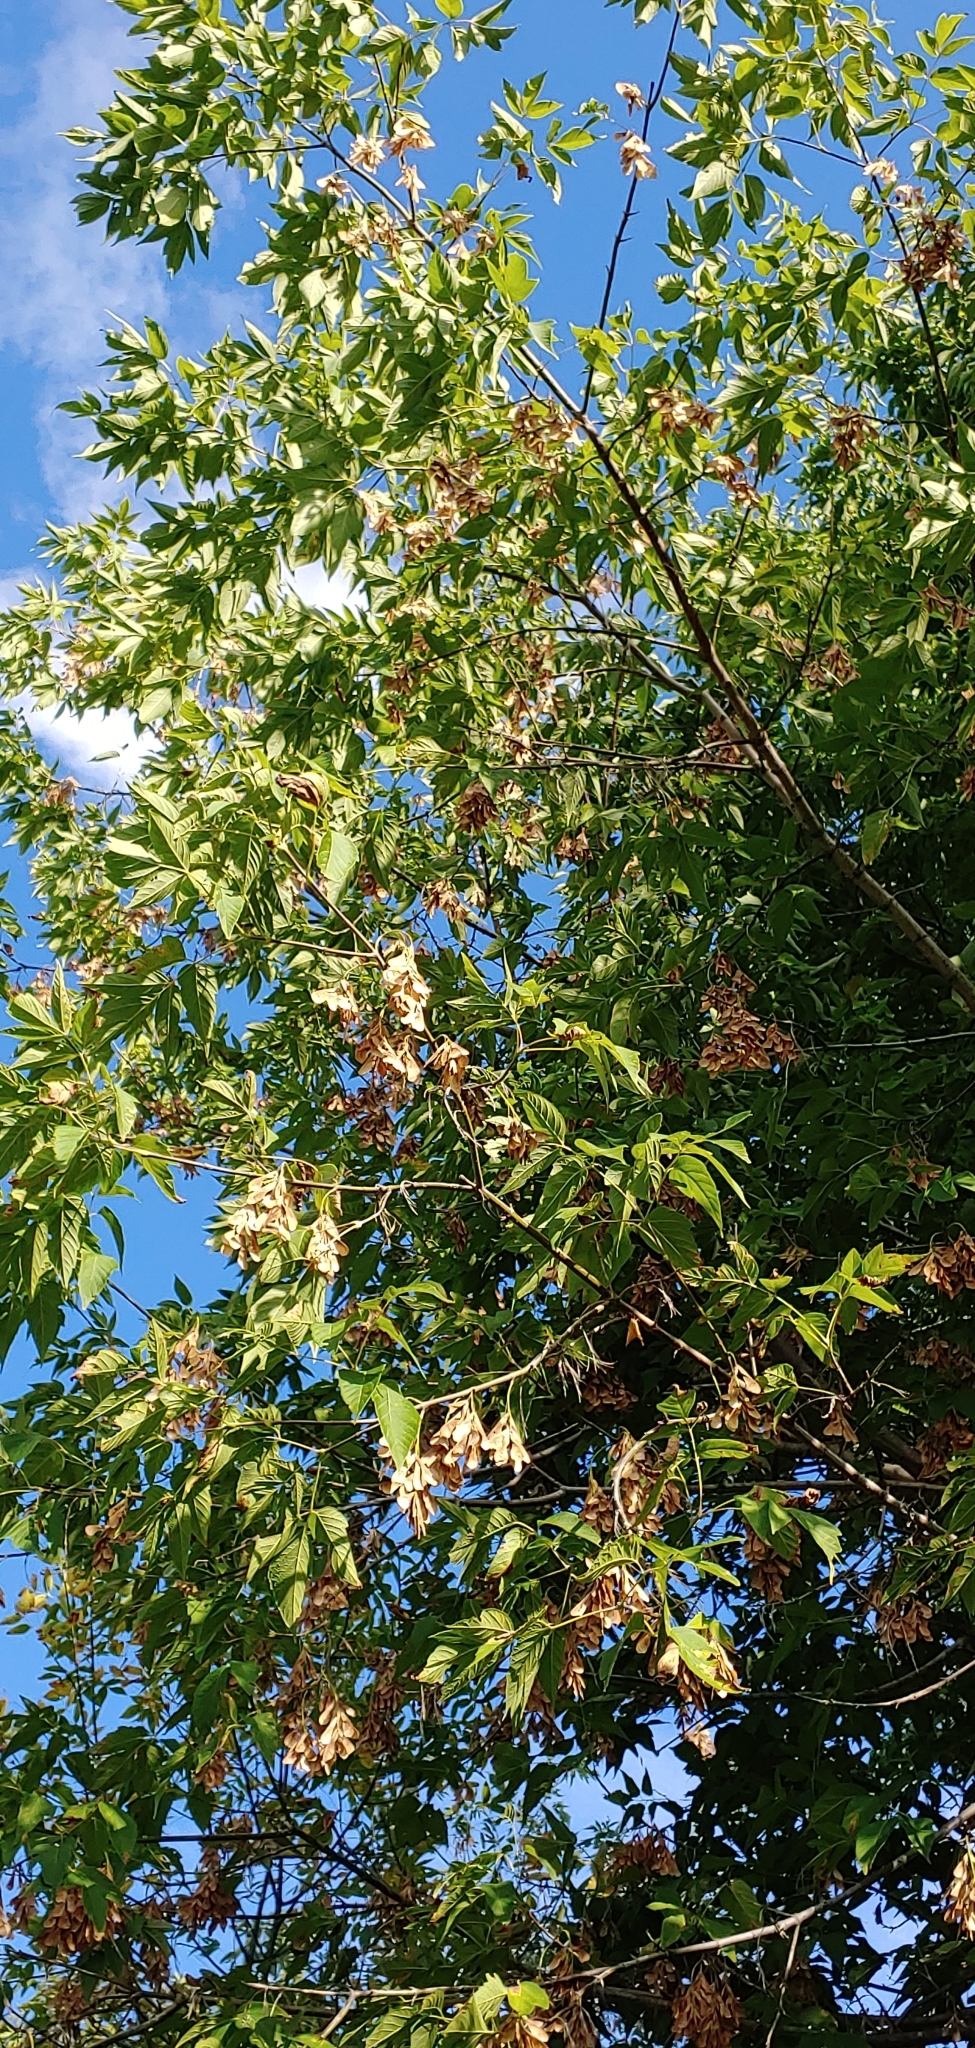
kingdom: Plantae
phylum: Tracheophyta
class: Magnoliopsida
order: Sapindales
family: Sapindaceae
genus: Acer
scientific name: Acer negundo
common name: Ashleaf maple
